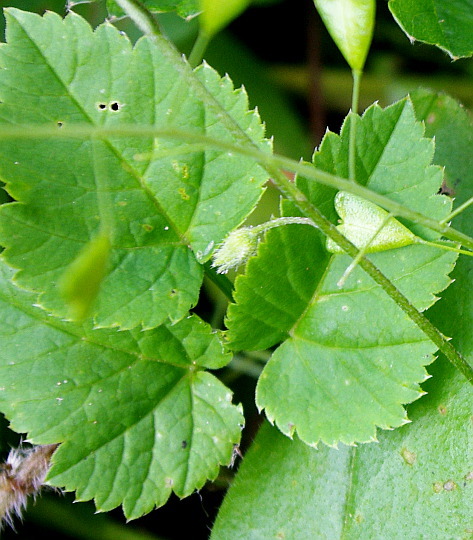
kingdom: Plantae
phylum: Tracheophyta
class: Magnoliopsida
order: Apiales
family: Apiaceae
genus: Aegopodium
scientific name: Aegopodium podagraria
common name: Ground-elder
